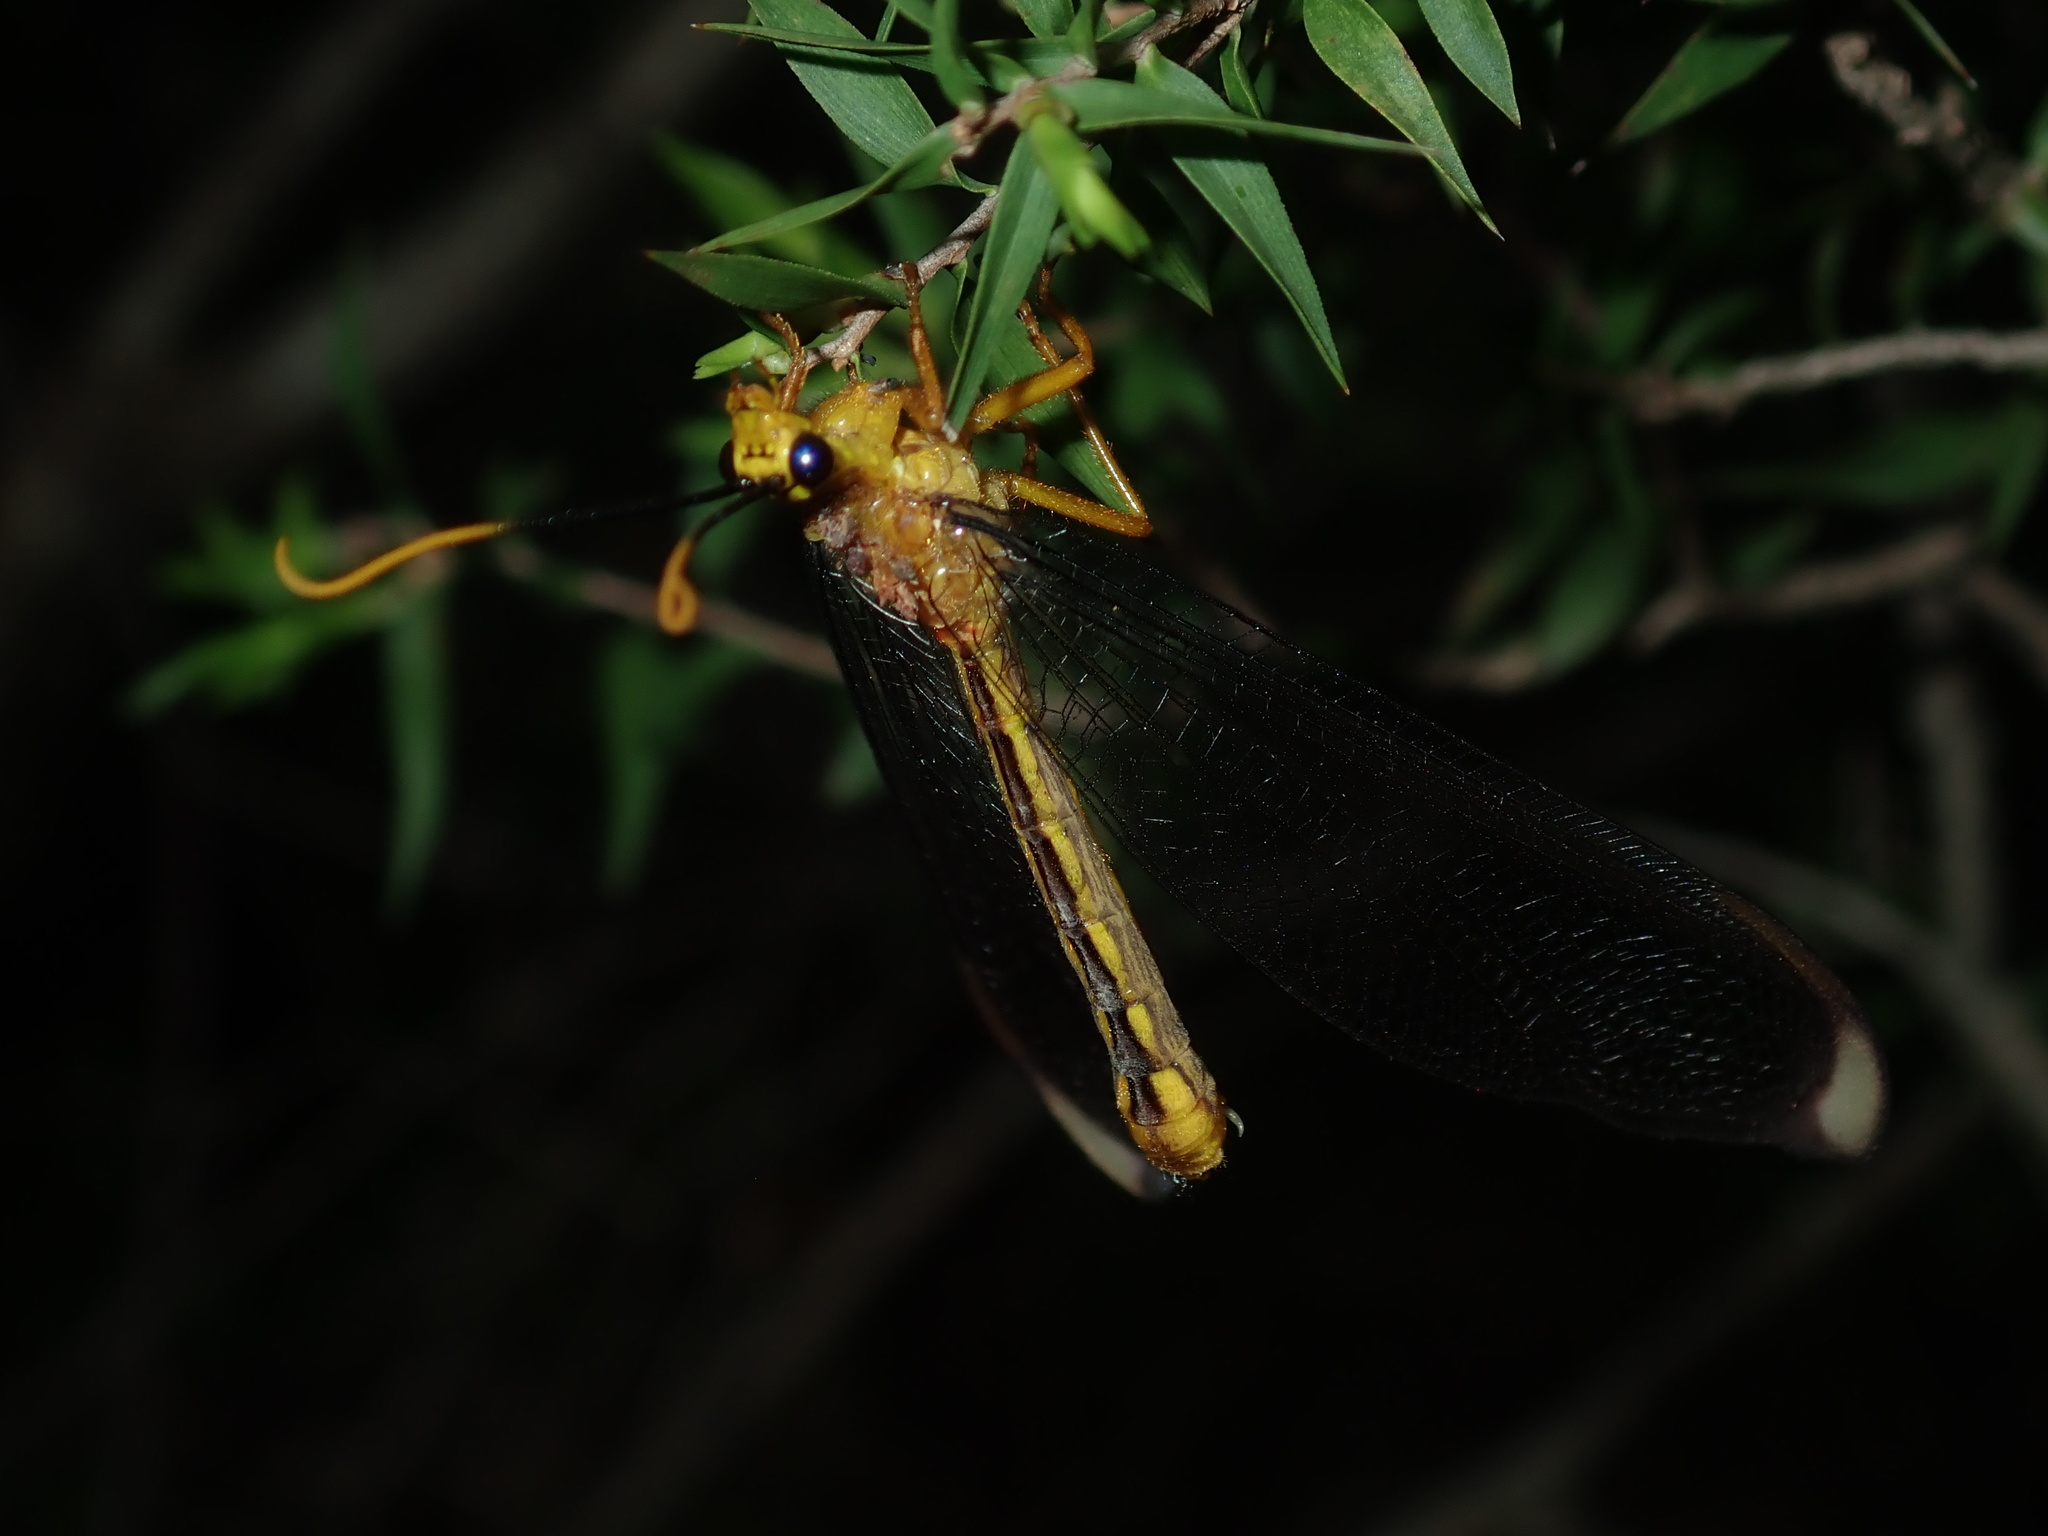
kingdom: Animalia
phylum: Arthropoda
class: Insecta
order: Neuroptera
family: Nymphidae
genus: Nymphes
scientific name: Nymphes myrmeleonoides
